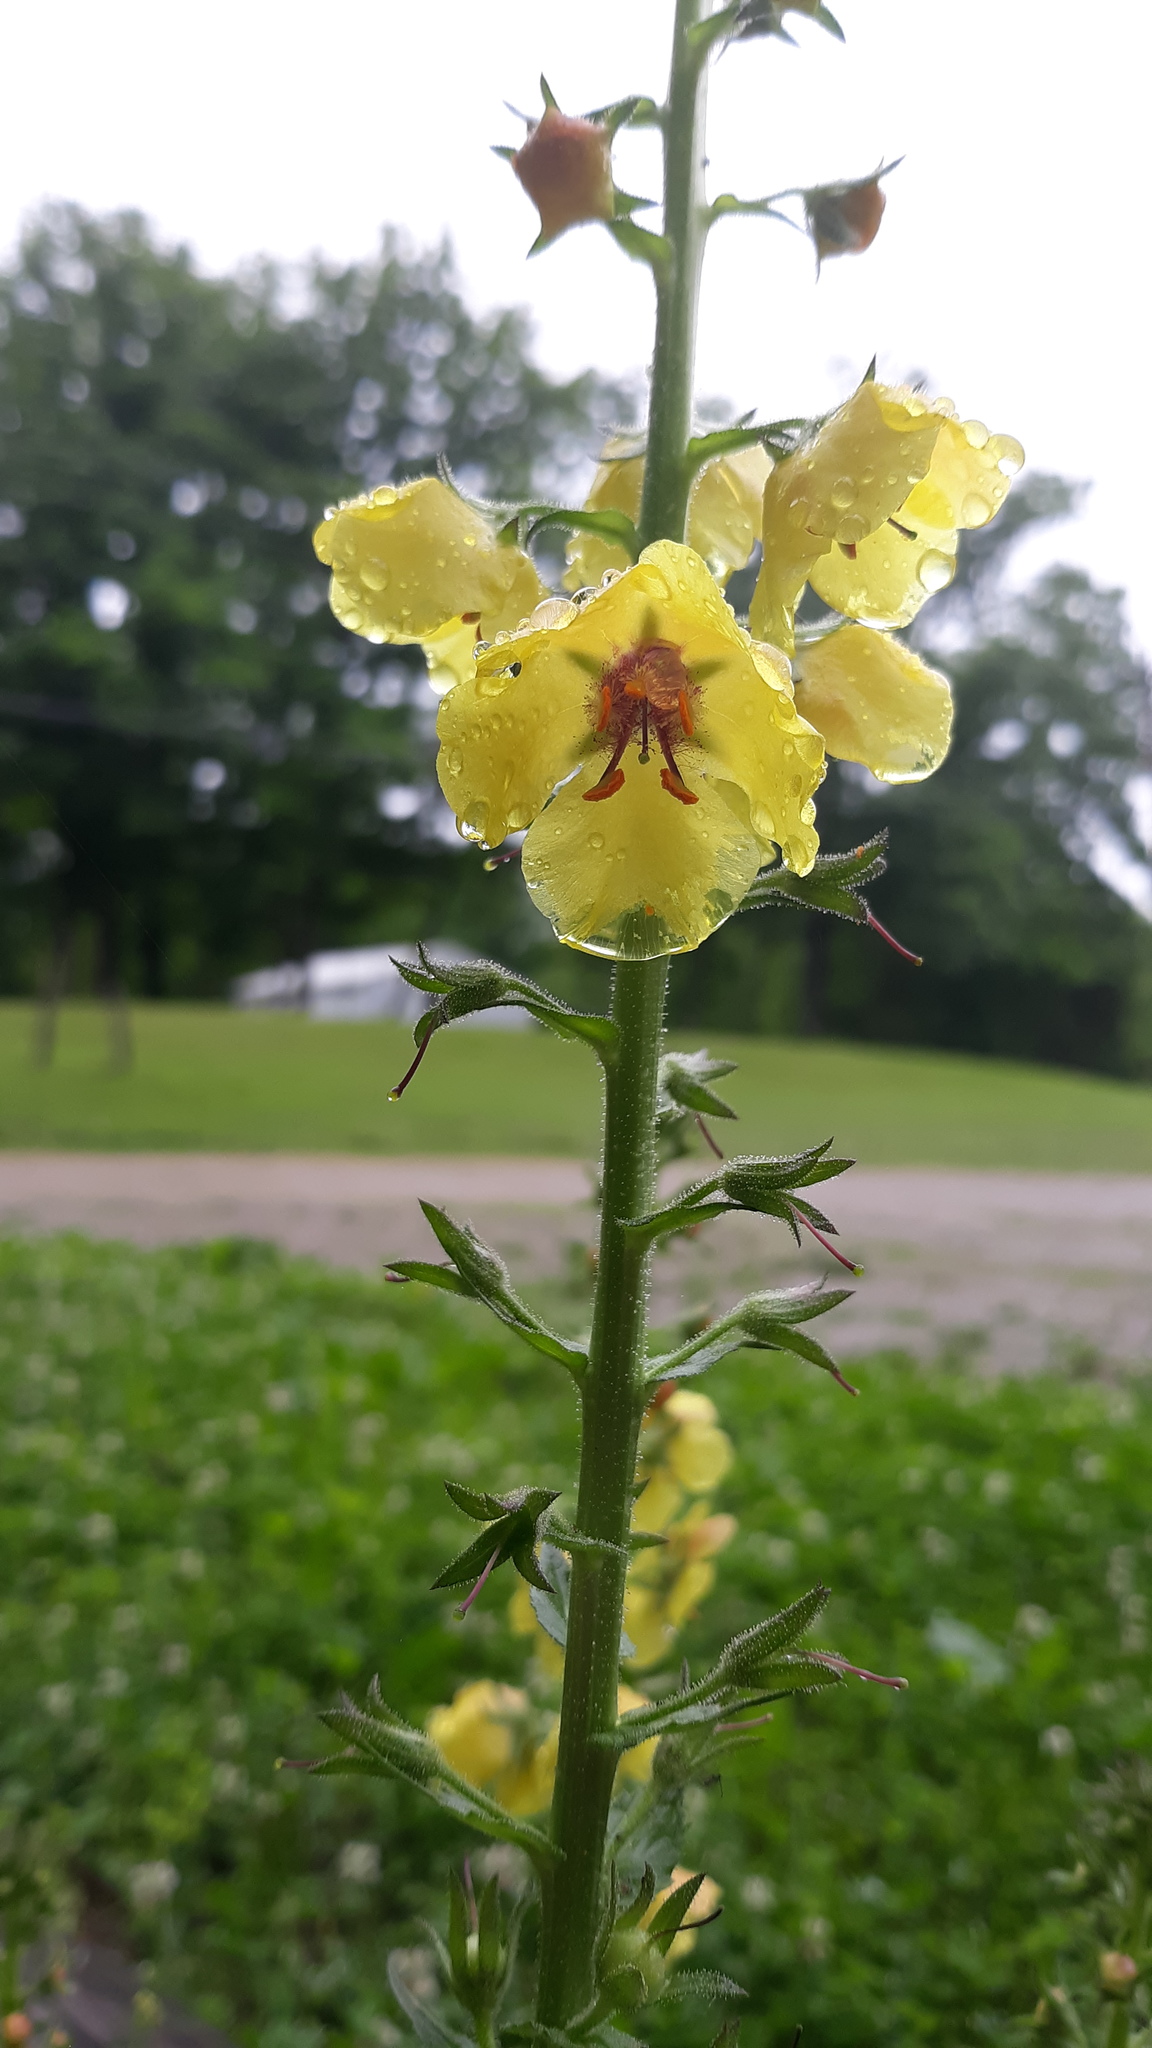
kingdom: Plantae
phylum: Tracheophyta
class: Magnoliopsida
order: Lamiales
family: Scrophulariaceae
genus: Verbascum
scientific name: Verbascum blattaria
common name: Moth mullein
